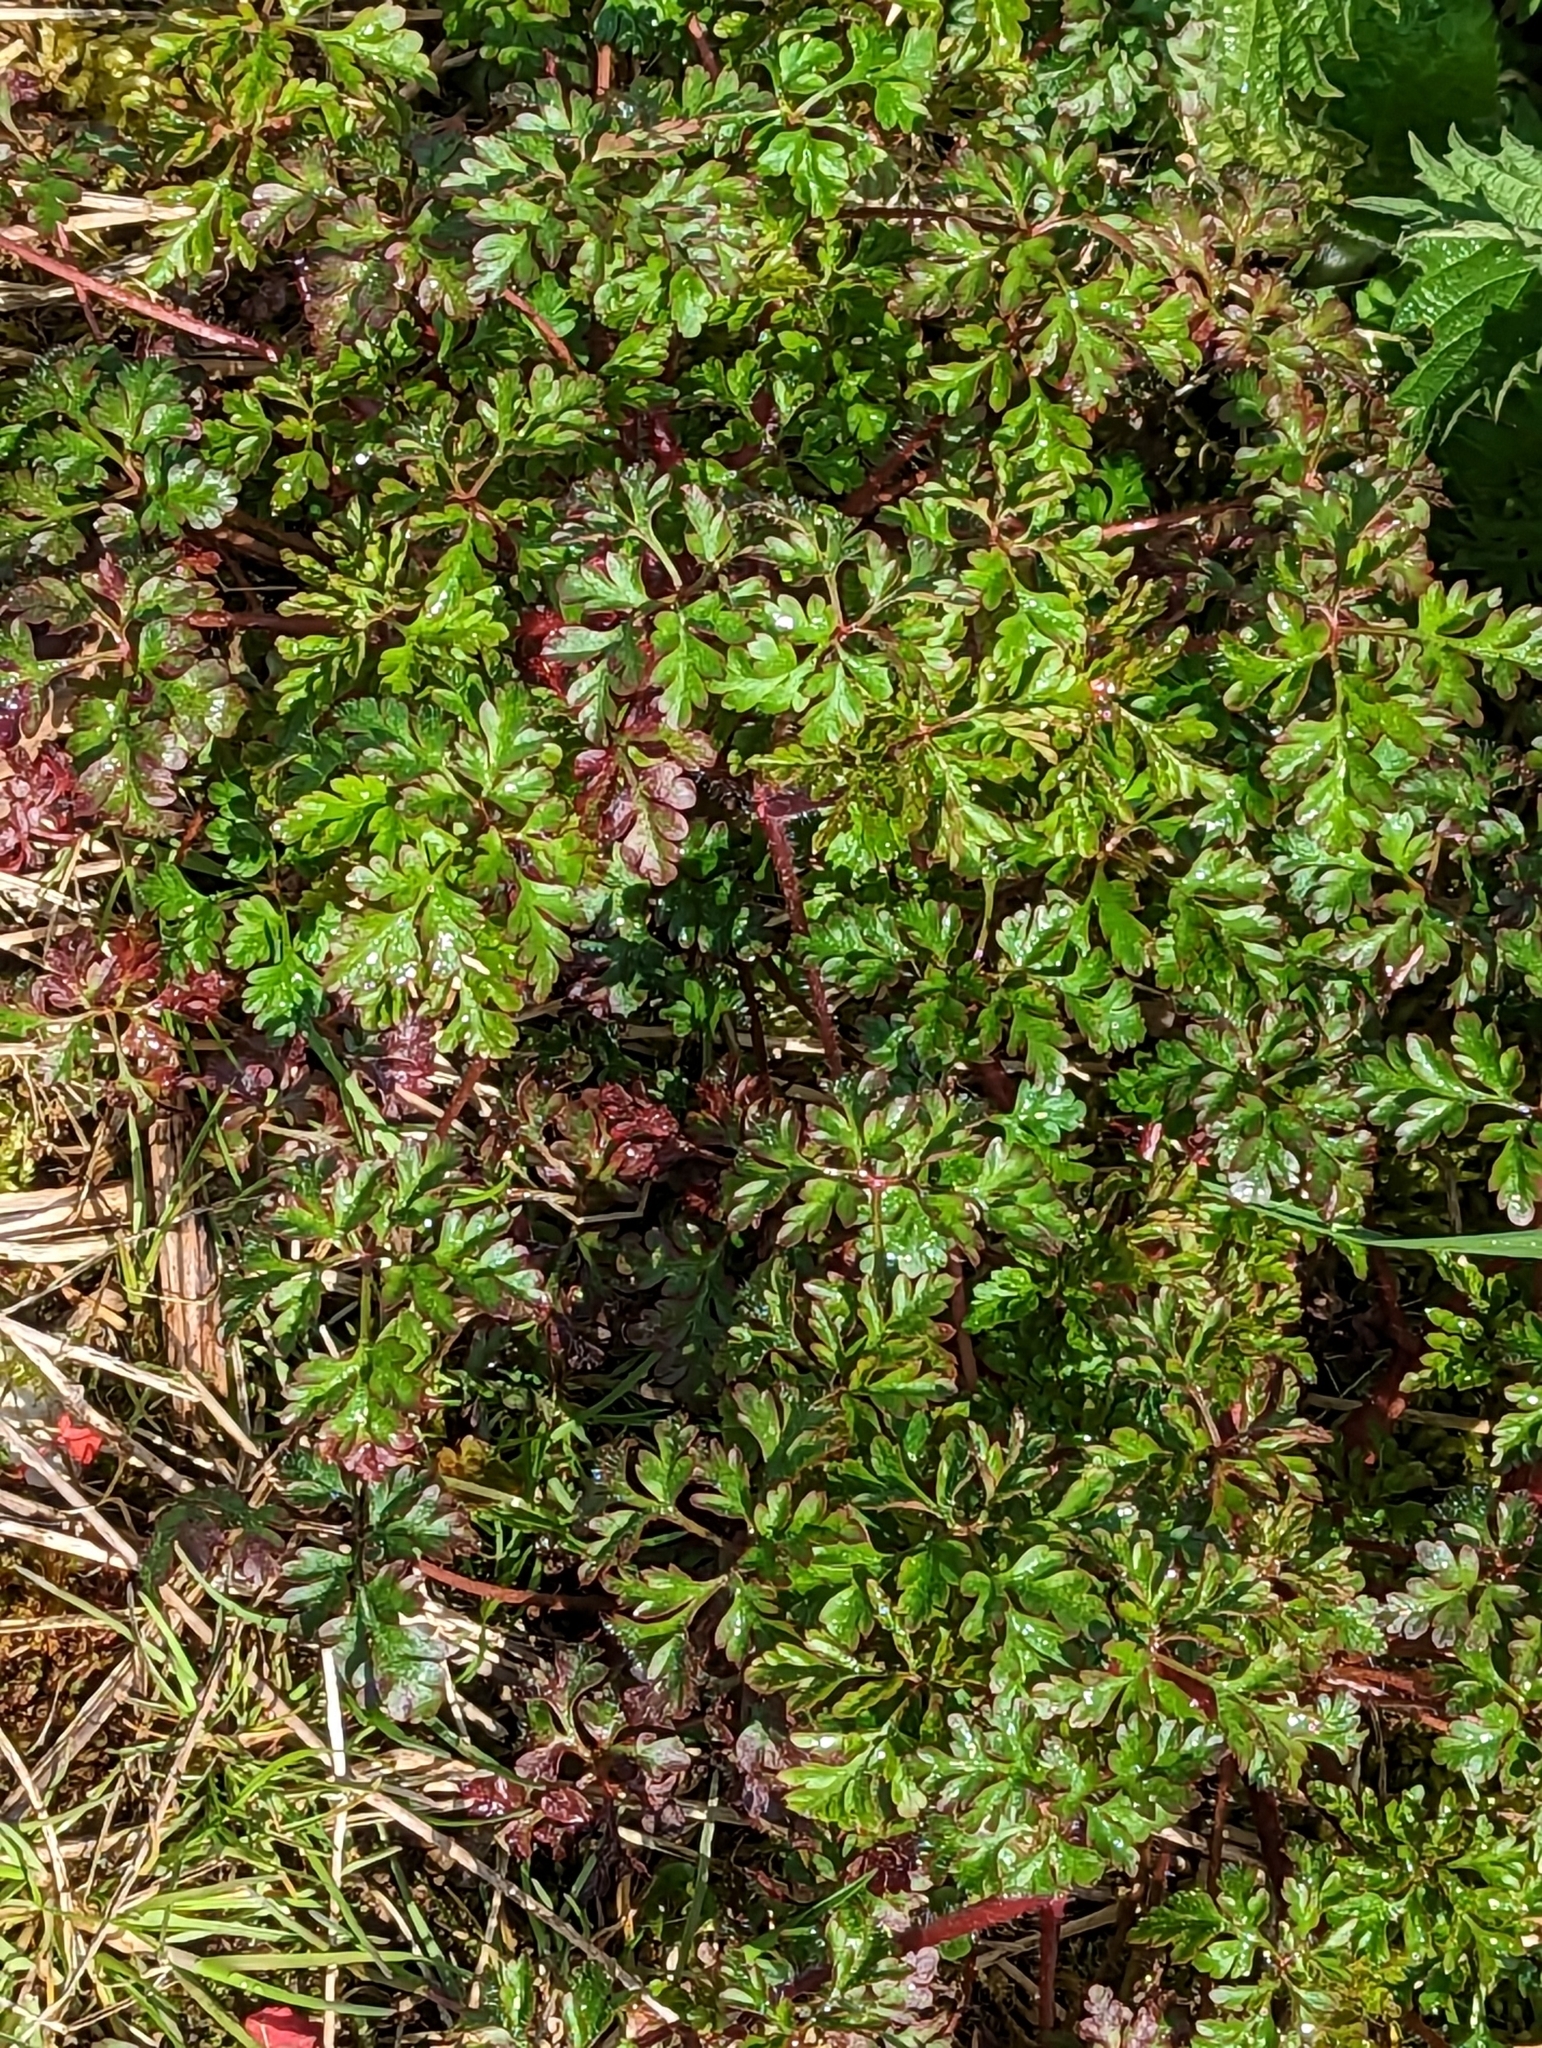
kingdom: Plantae
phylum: Tracheophyta
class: Magnoliopsida
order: Geraniales
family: Geraniaceae
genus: Geranium
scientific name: Geranium robertianum
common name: Herb-robert
